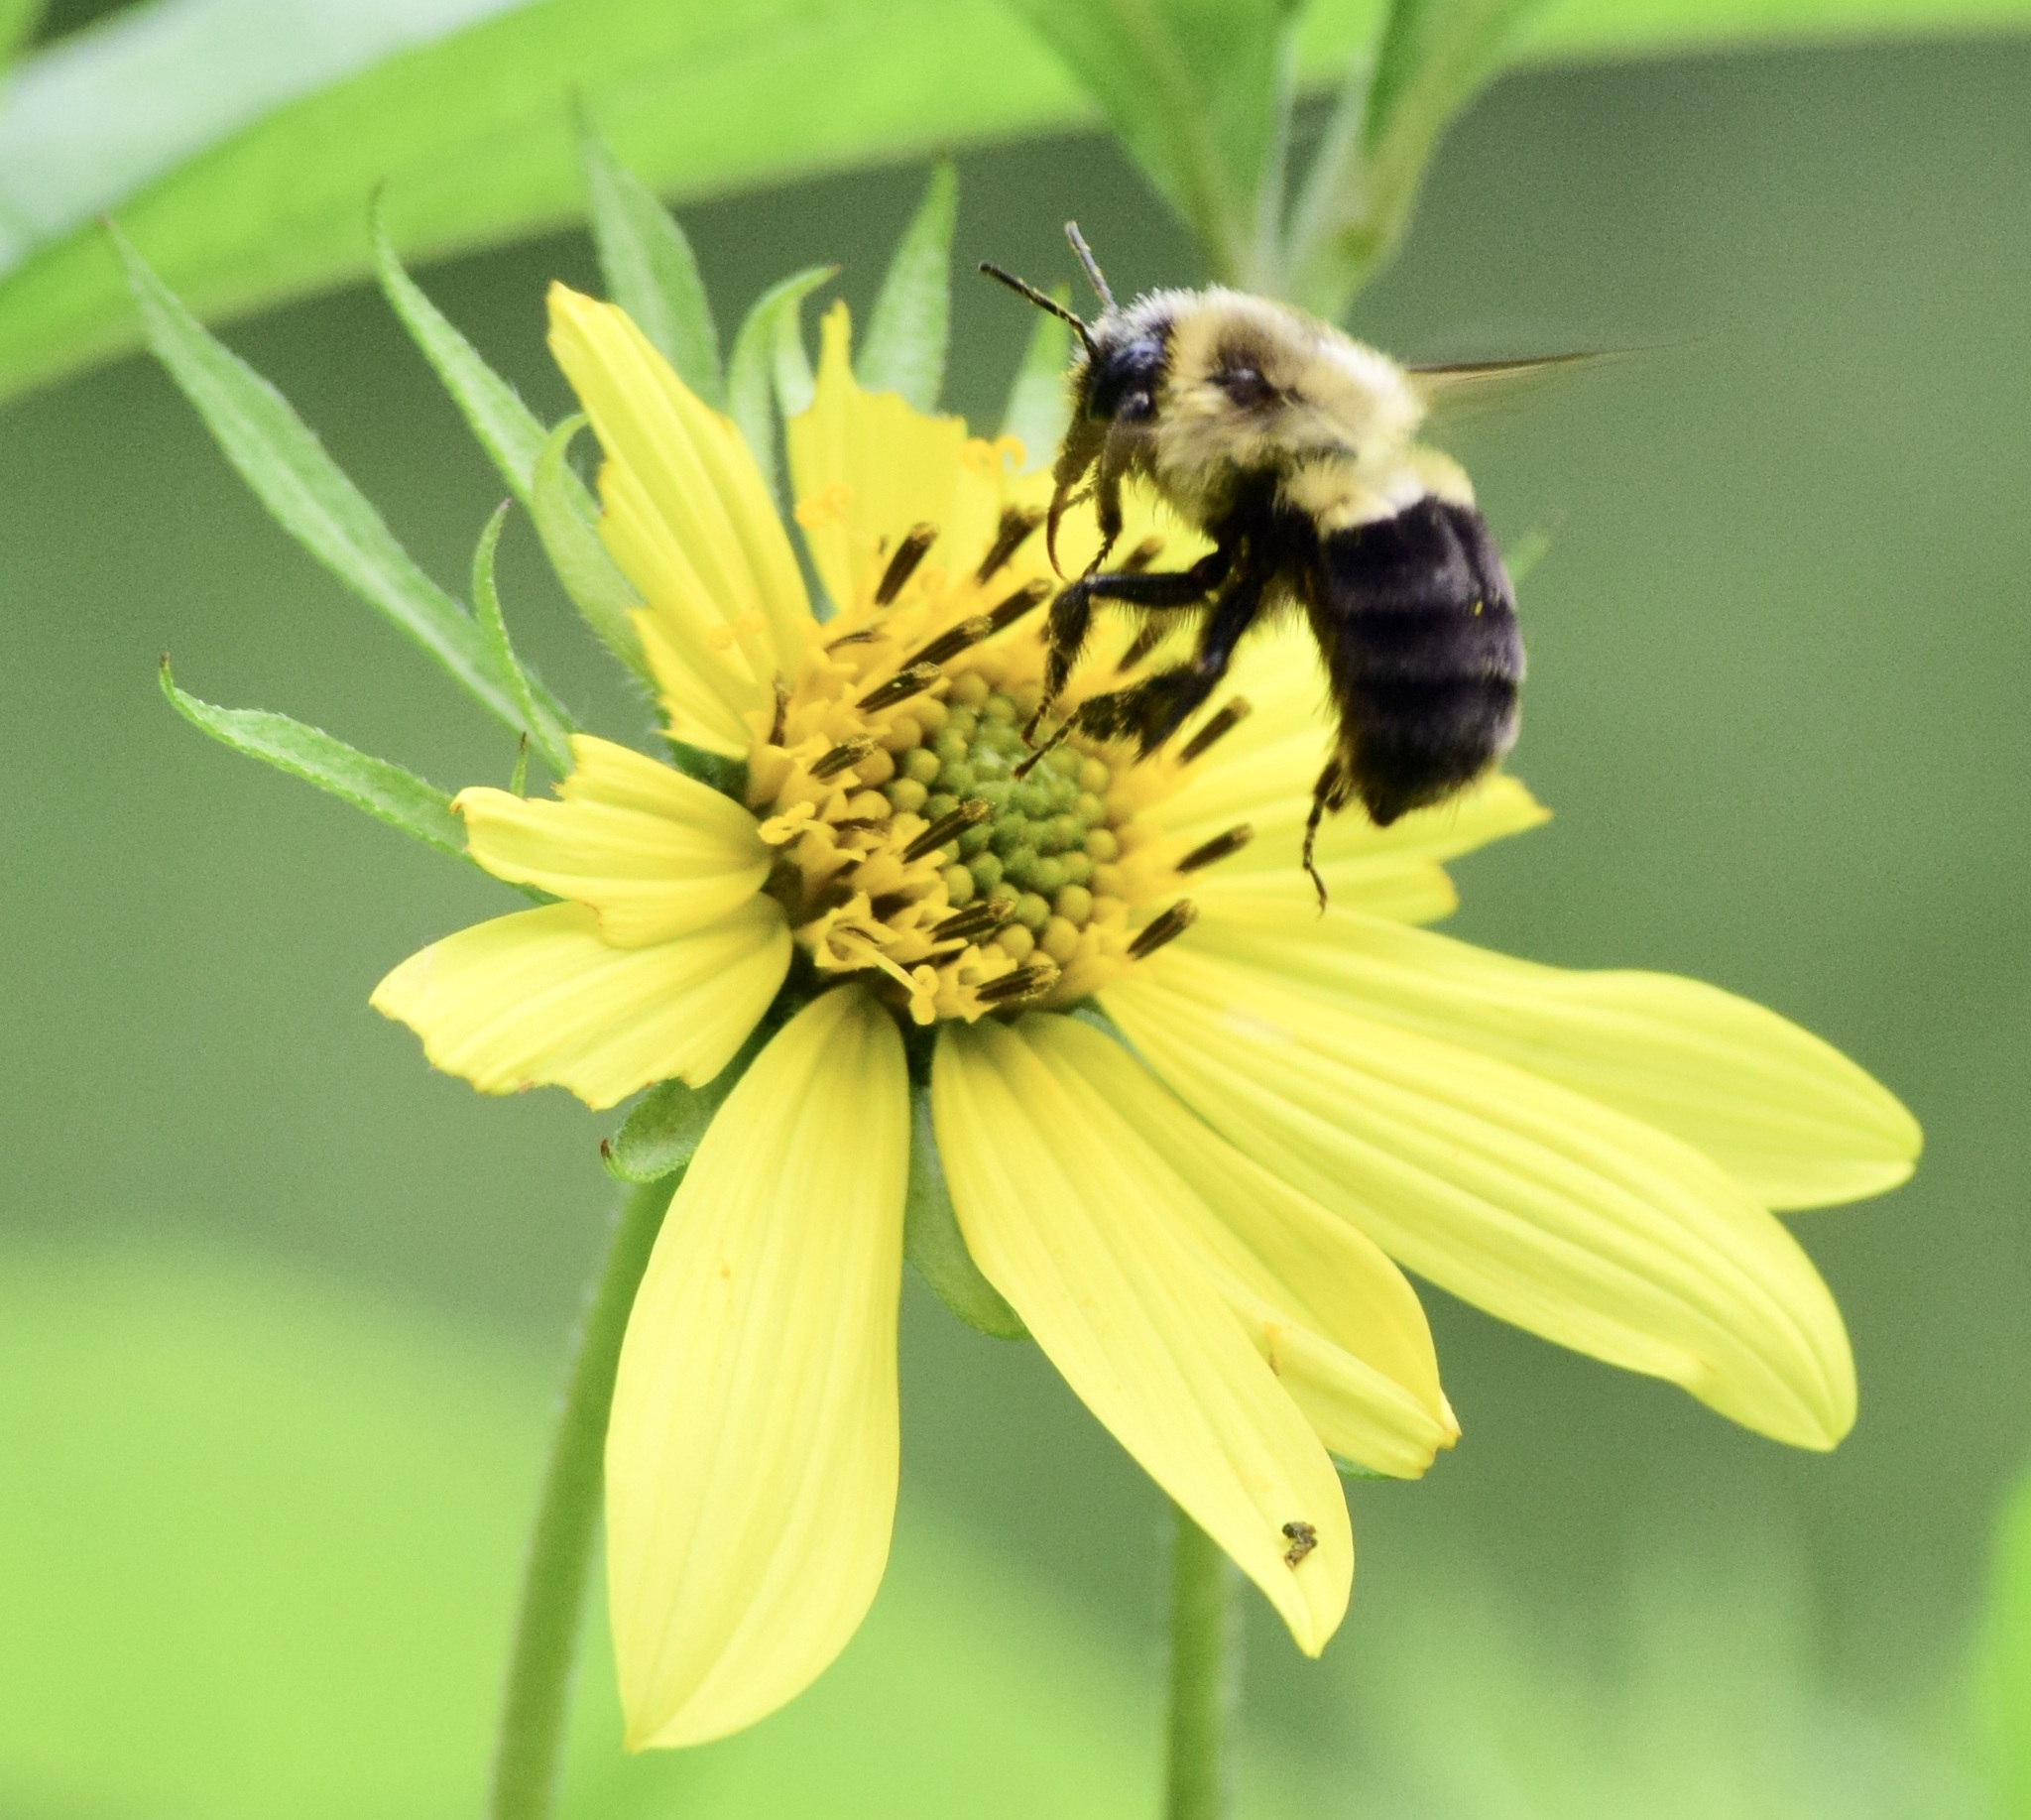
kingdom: Animalia
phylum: Arthropoda
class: Insecta
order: Hymenoptera
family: Apidae
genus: Bombus
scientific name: Bombus impatiens
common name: Common eastern bumble bee
